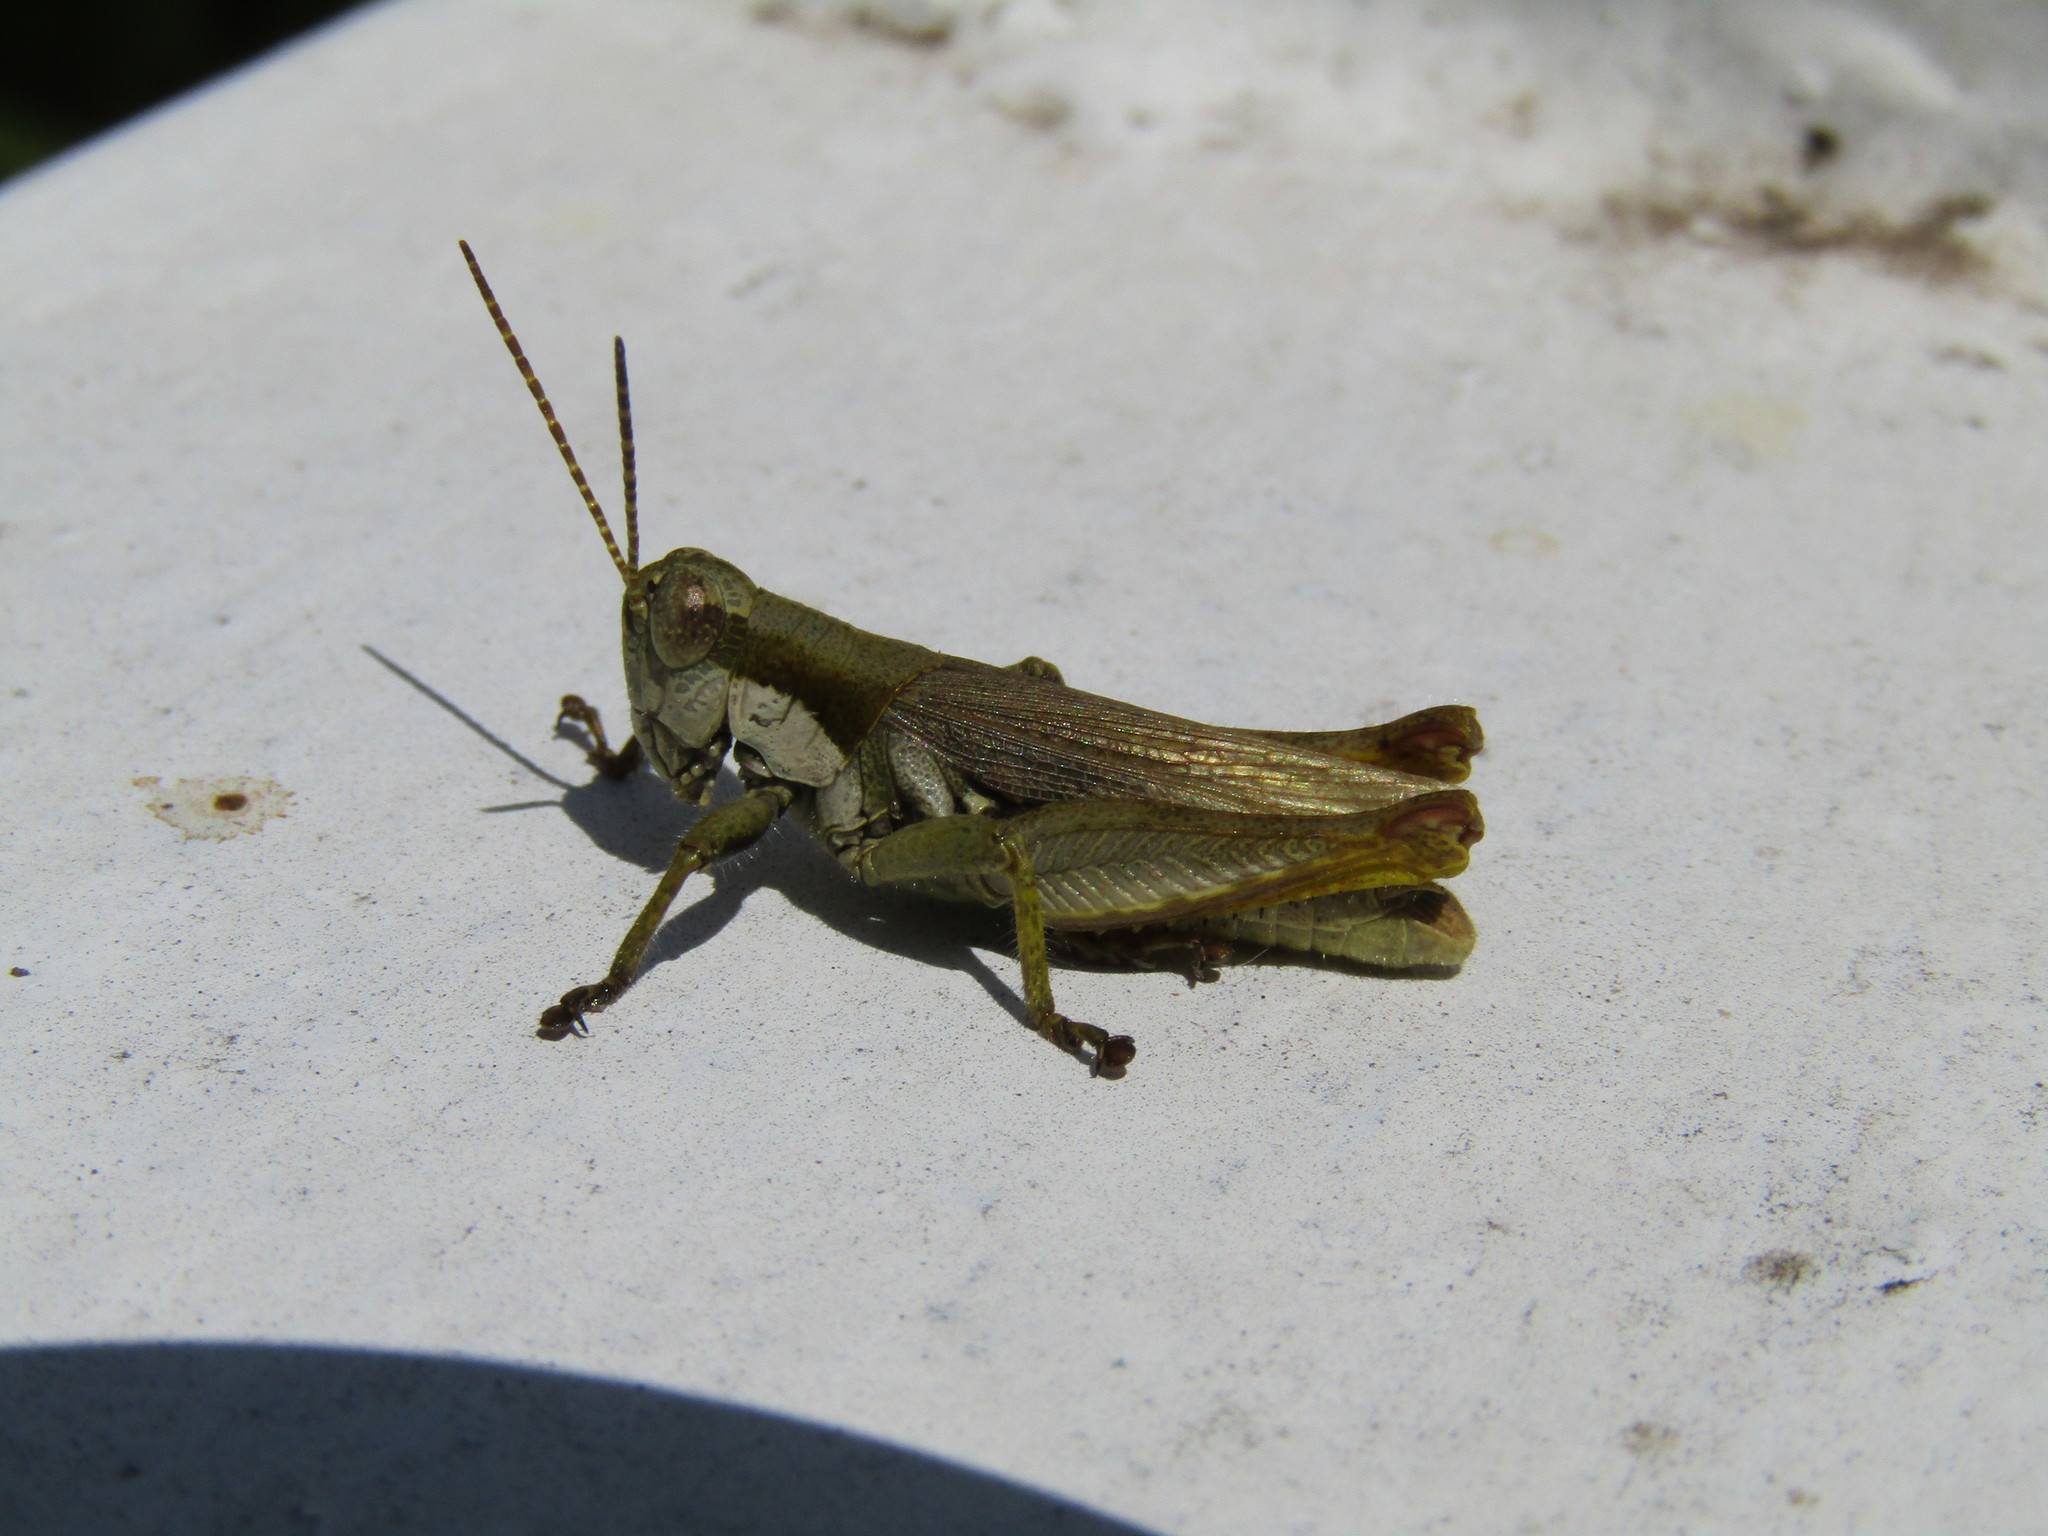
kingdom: Animalia
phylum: Arthropoda
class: Insecta
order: Orthoptera
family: Acrididae
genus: Ronderosia
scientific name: Ronderosia bergii
